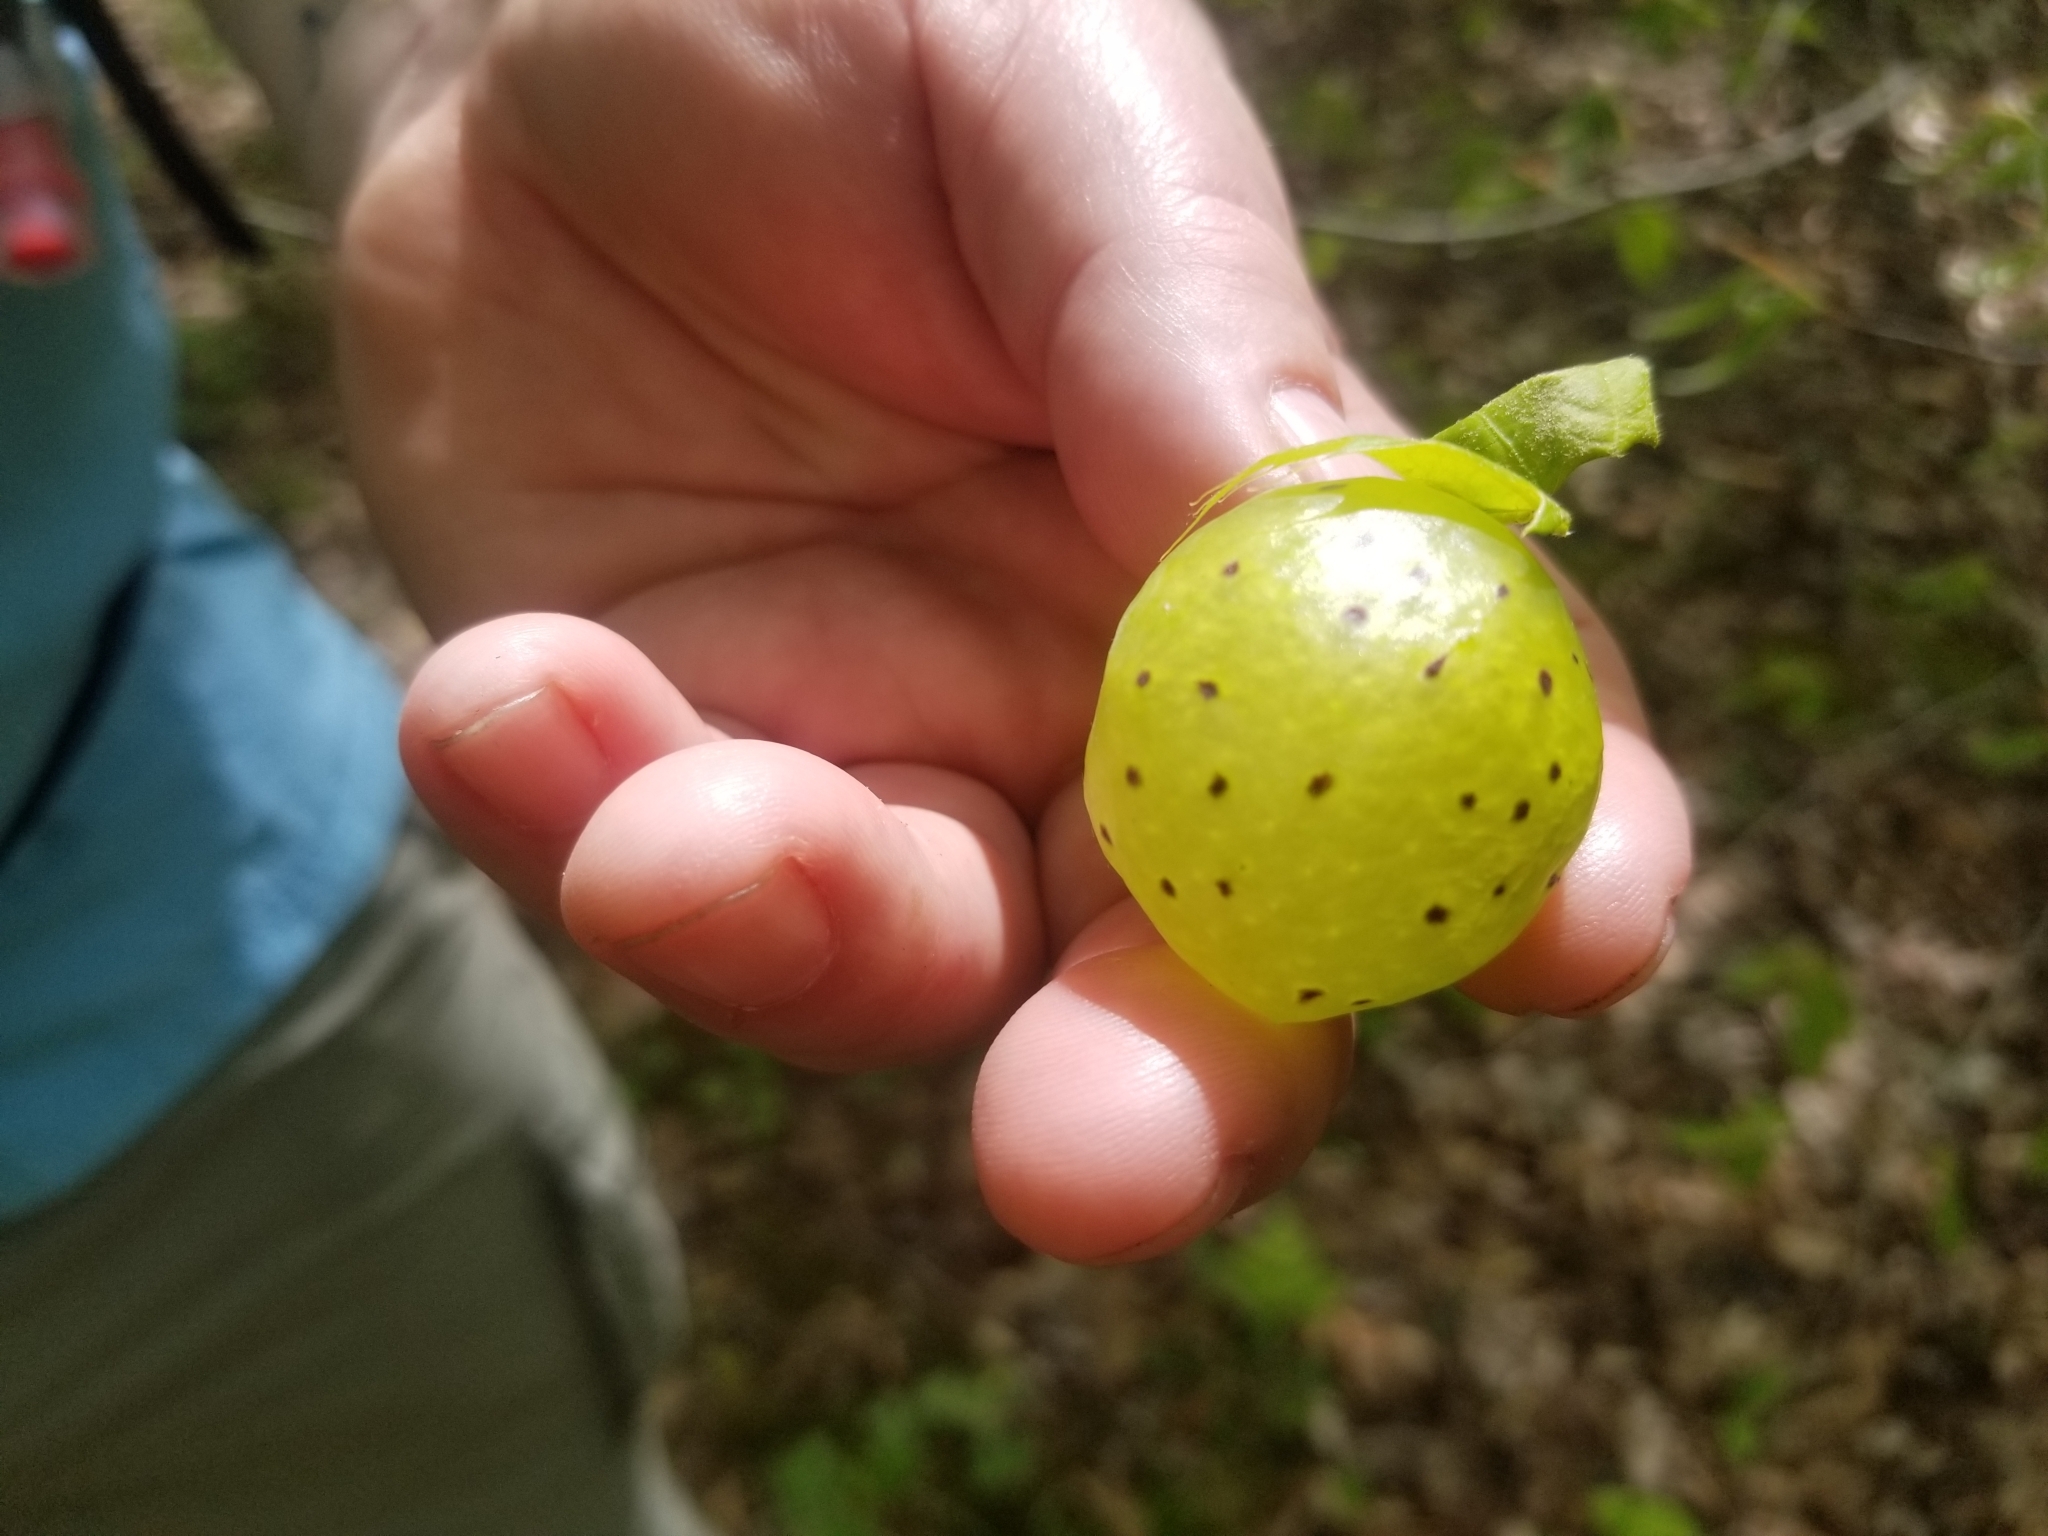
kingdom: Animalia
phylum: Arthropoda
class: Insecta
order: Hymenoptera
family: Cynipidae
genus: Amphibolips
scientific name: Amphibolips
